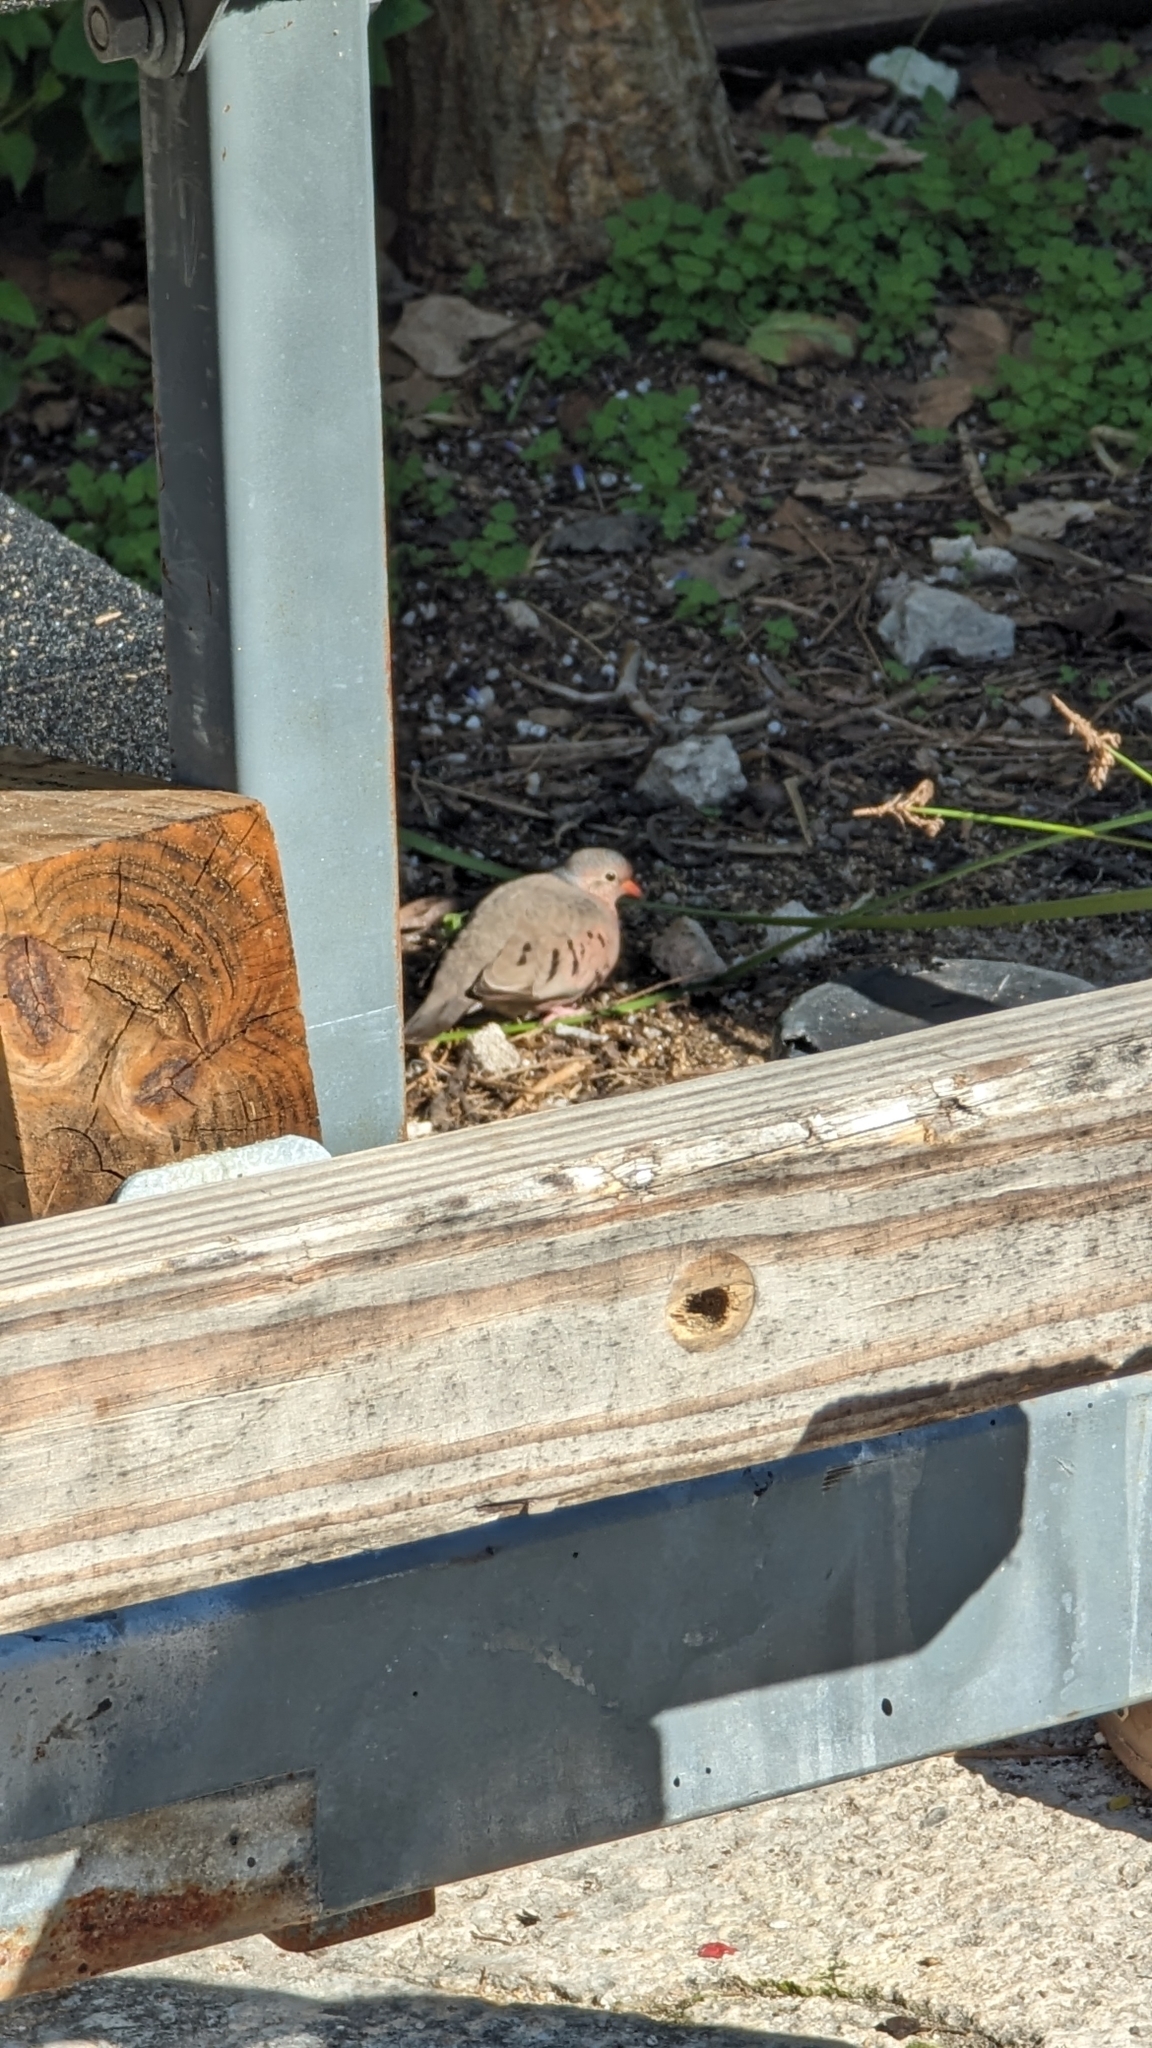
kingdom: Animalia
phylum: Chordata
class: Aves
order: Columbiformes
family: Columbidae
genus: Columbina
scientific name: Columbina passerina
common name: Common ground-dove
